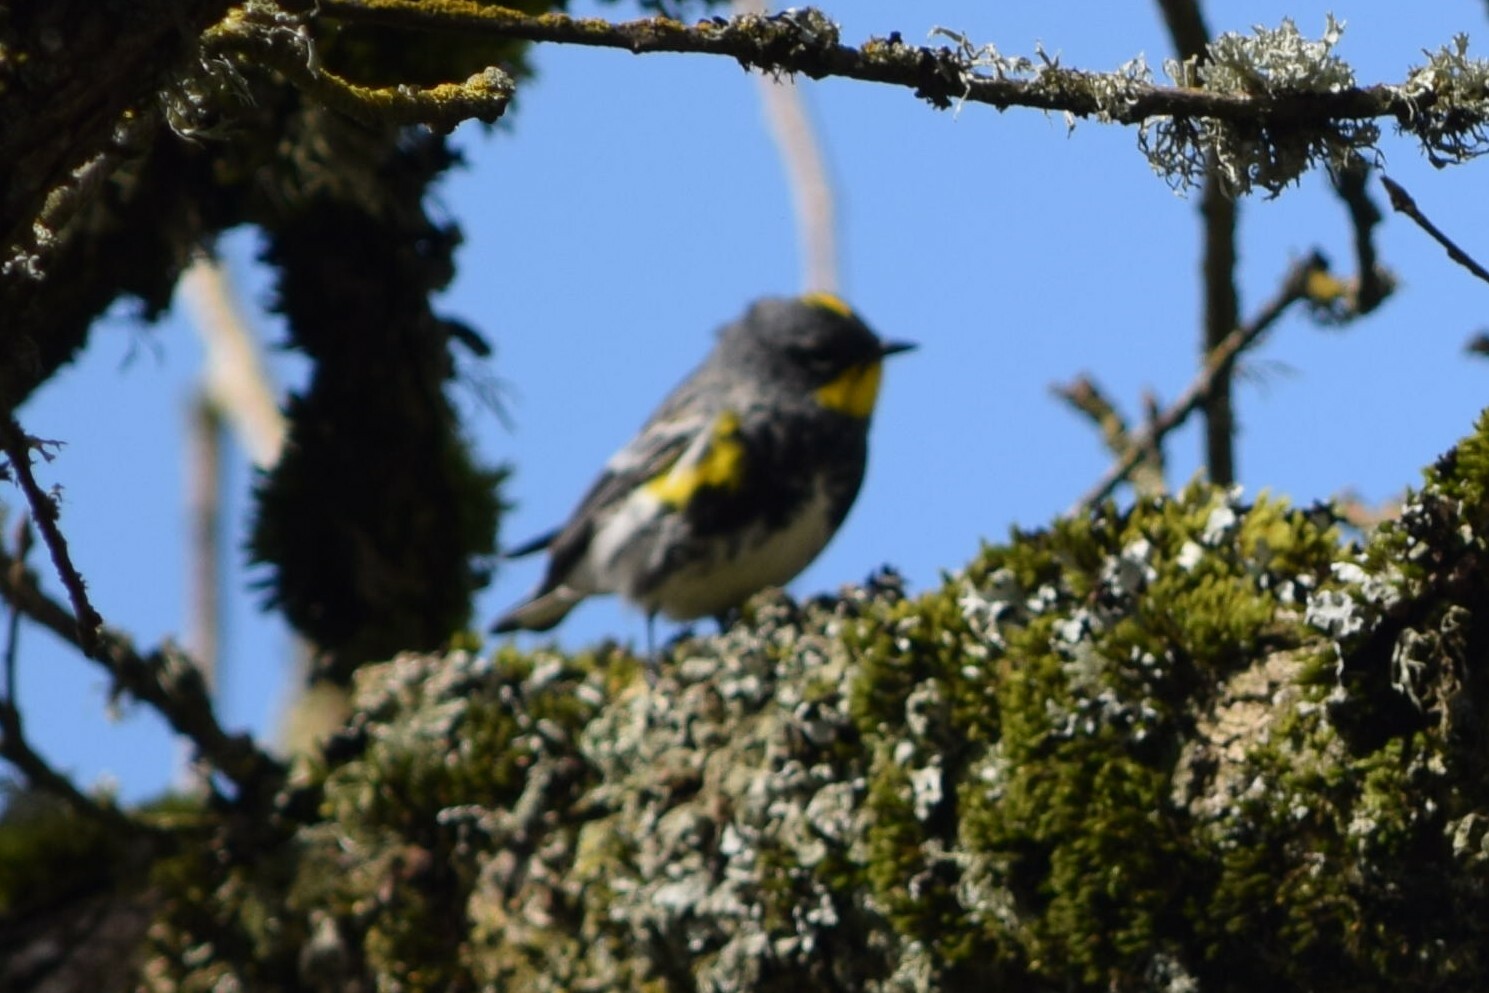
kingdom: Animalia
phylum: Chordata
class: Aves
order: Passeriformes
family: Parulidae
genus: Setophaga
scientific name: Setophaga coronata
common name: Myrtle warbler
